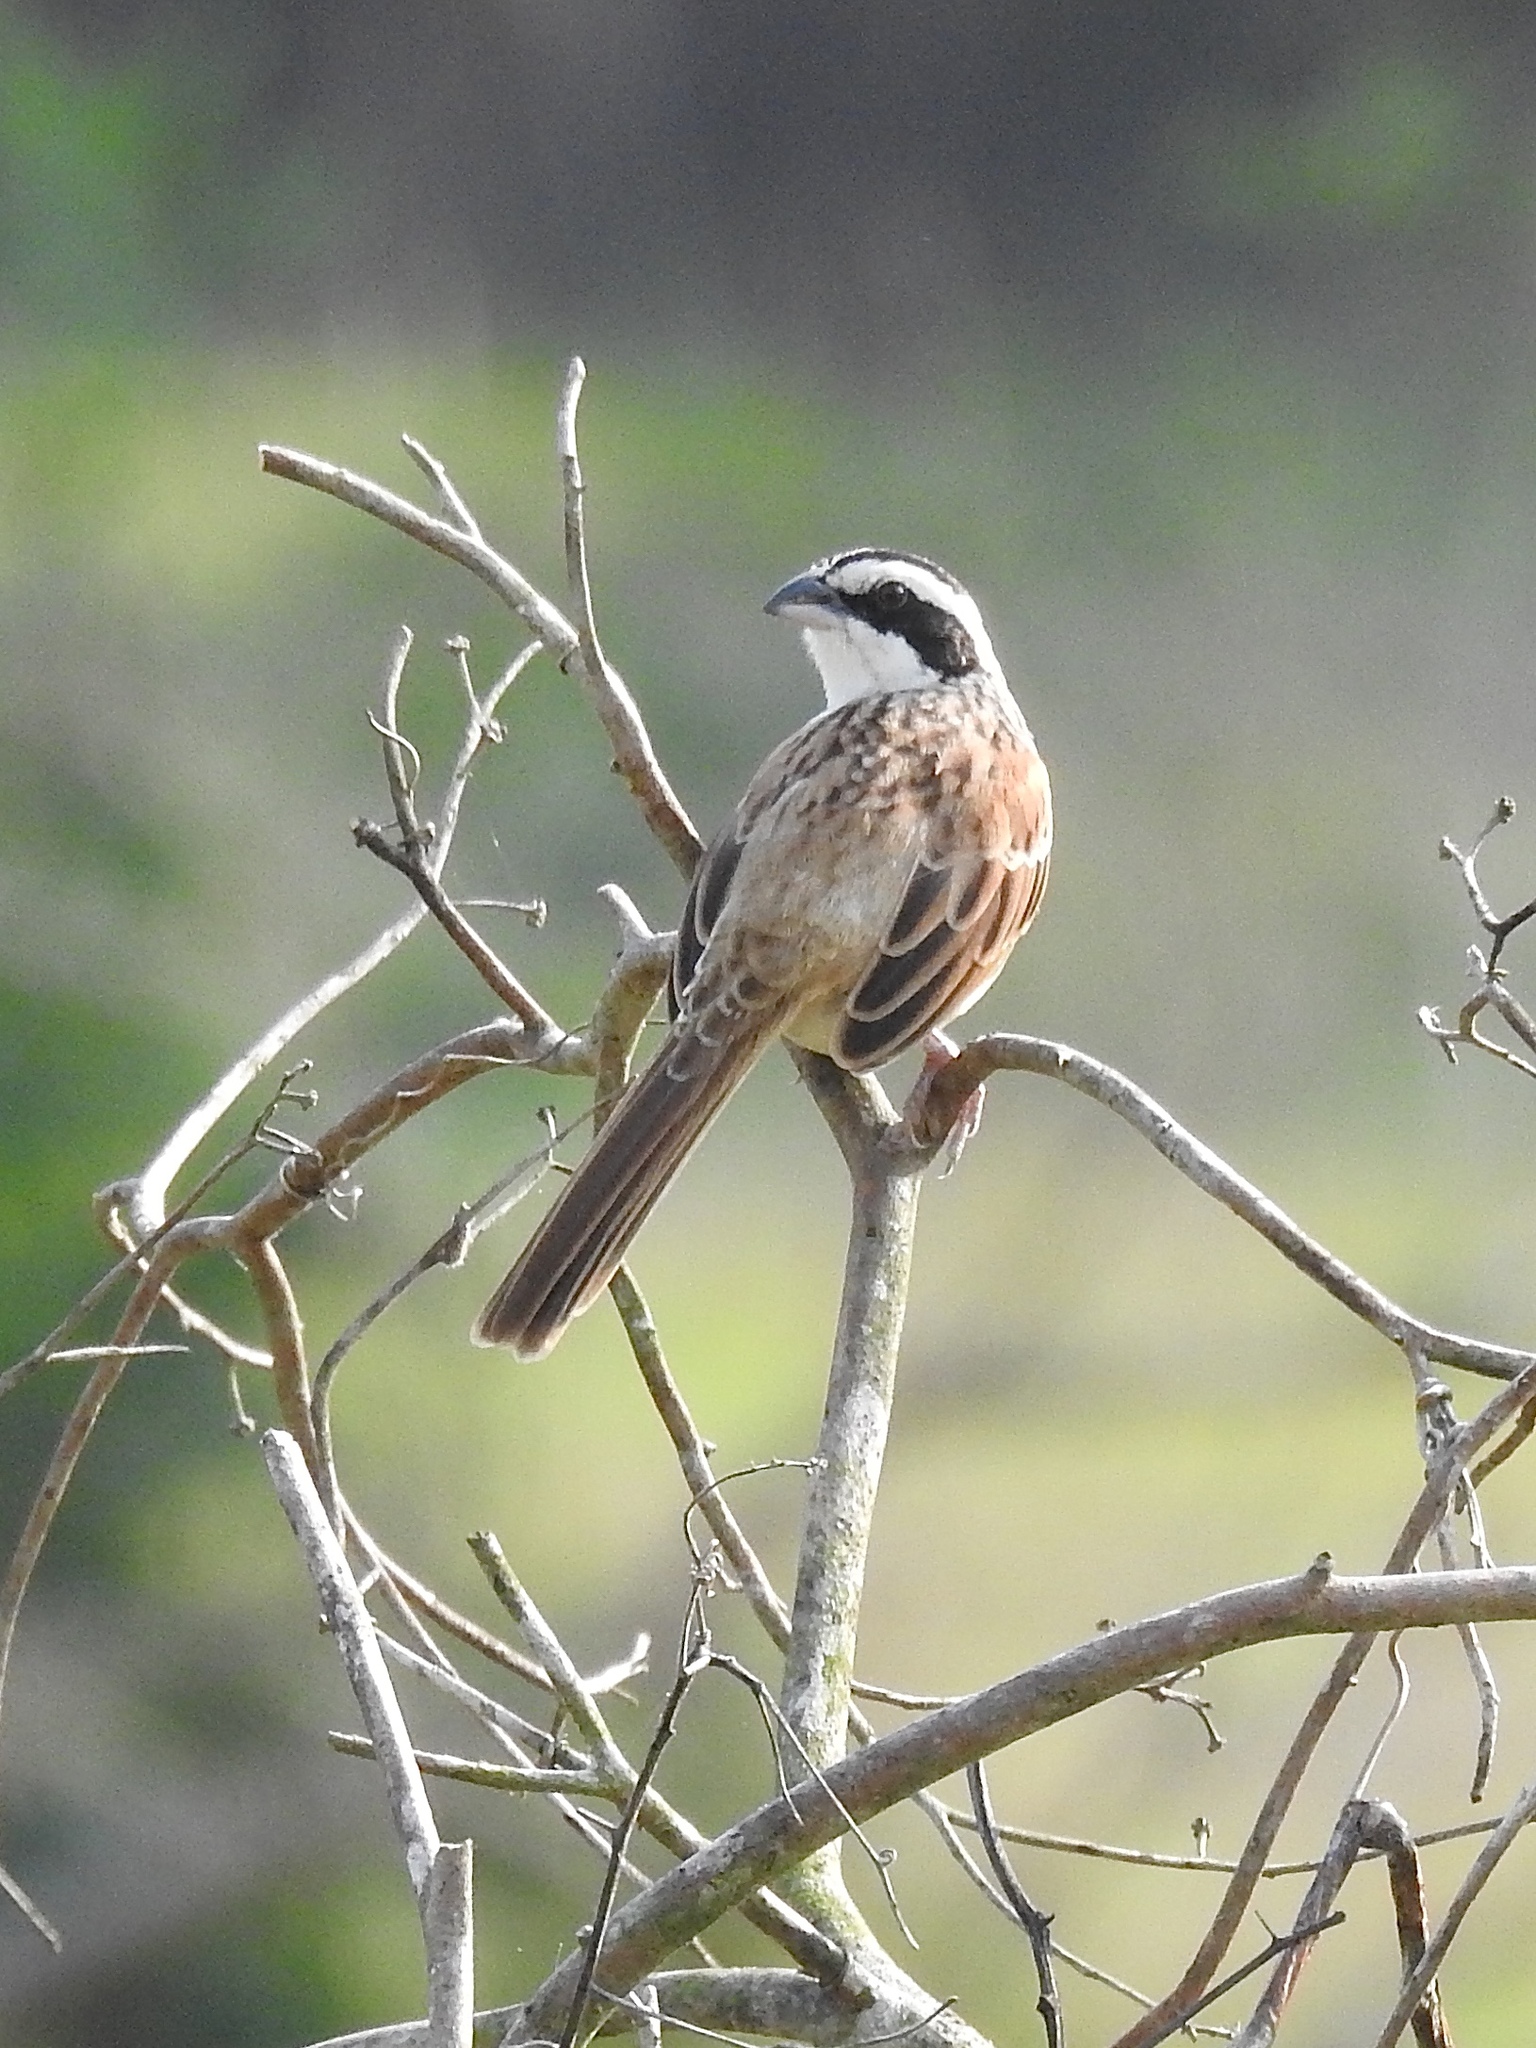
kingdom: Animalia
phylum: Chordata
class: Aves
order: Passeriformes
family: Passerellidae
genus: Peucaea
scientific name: Peucaea ruficauda
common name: Stripe-headed sparrow
